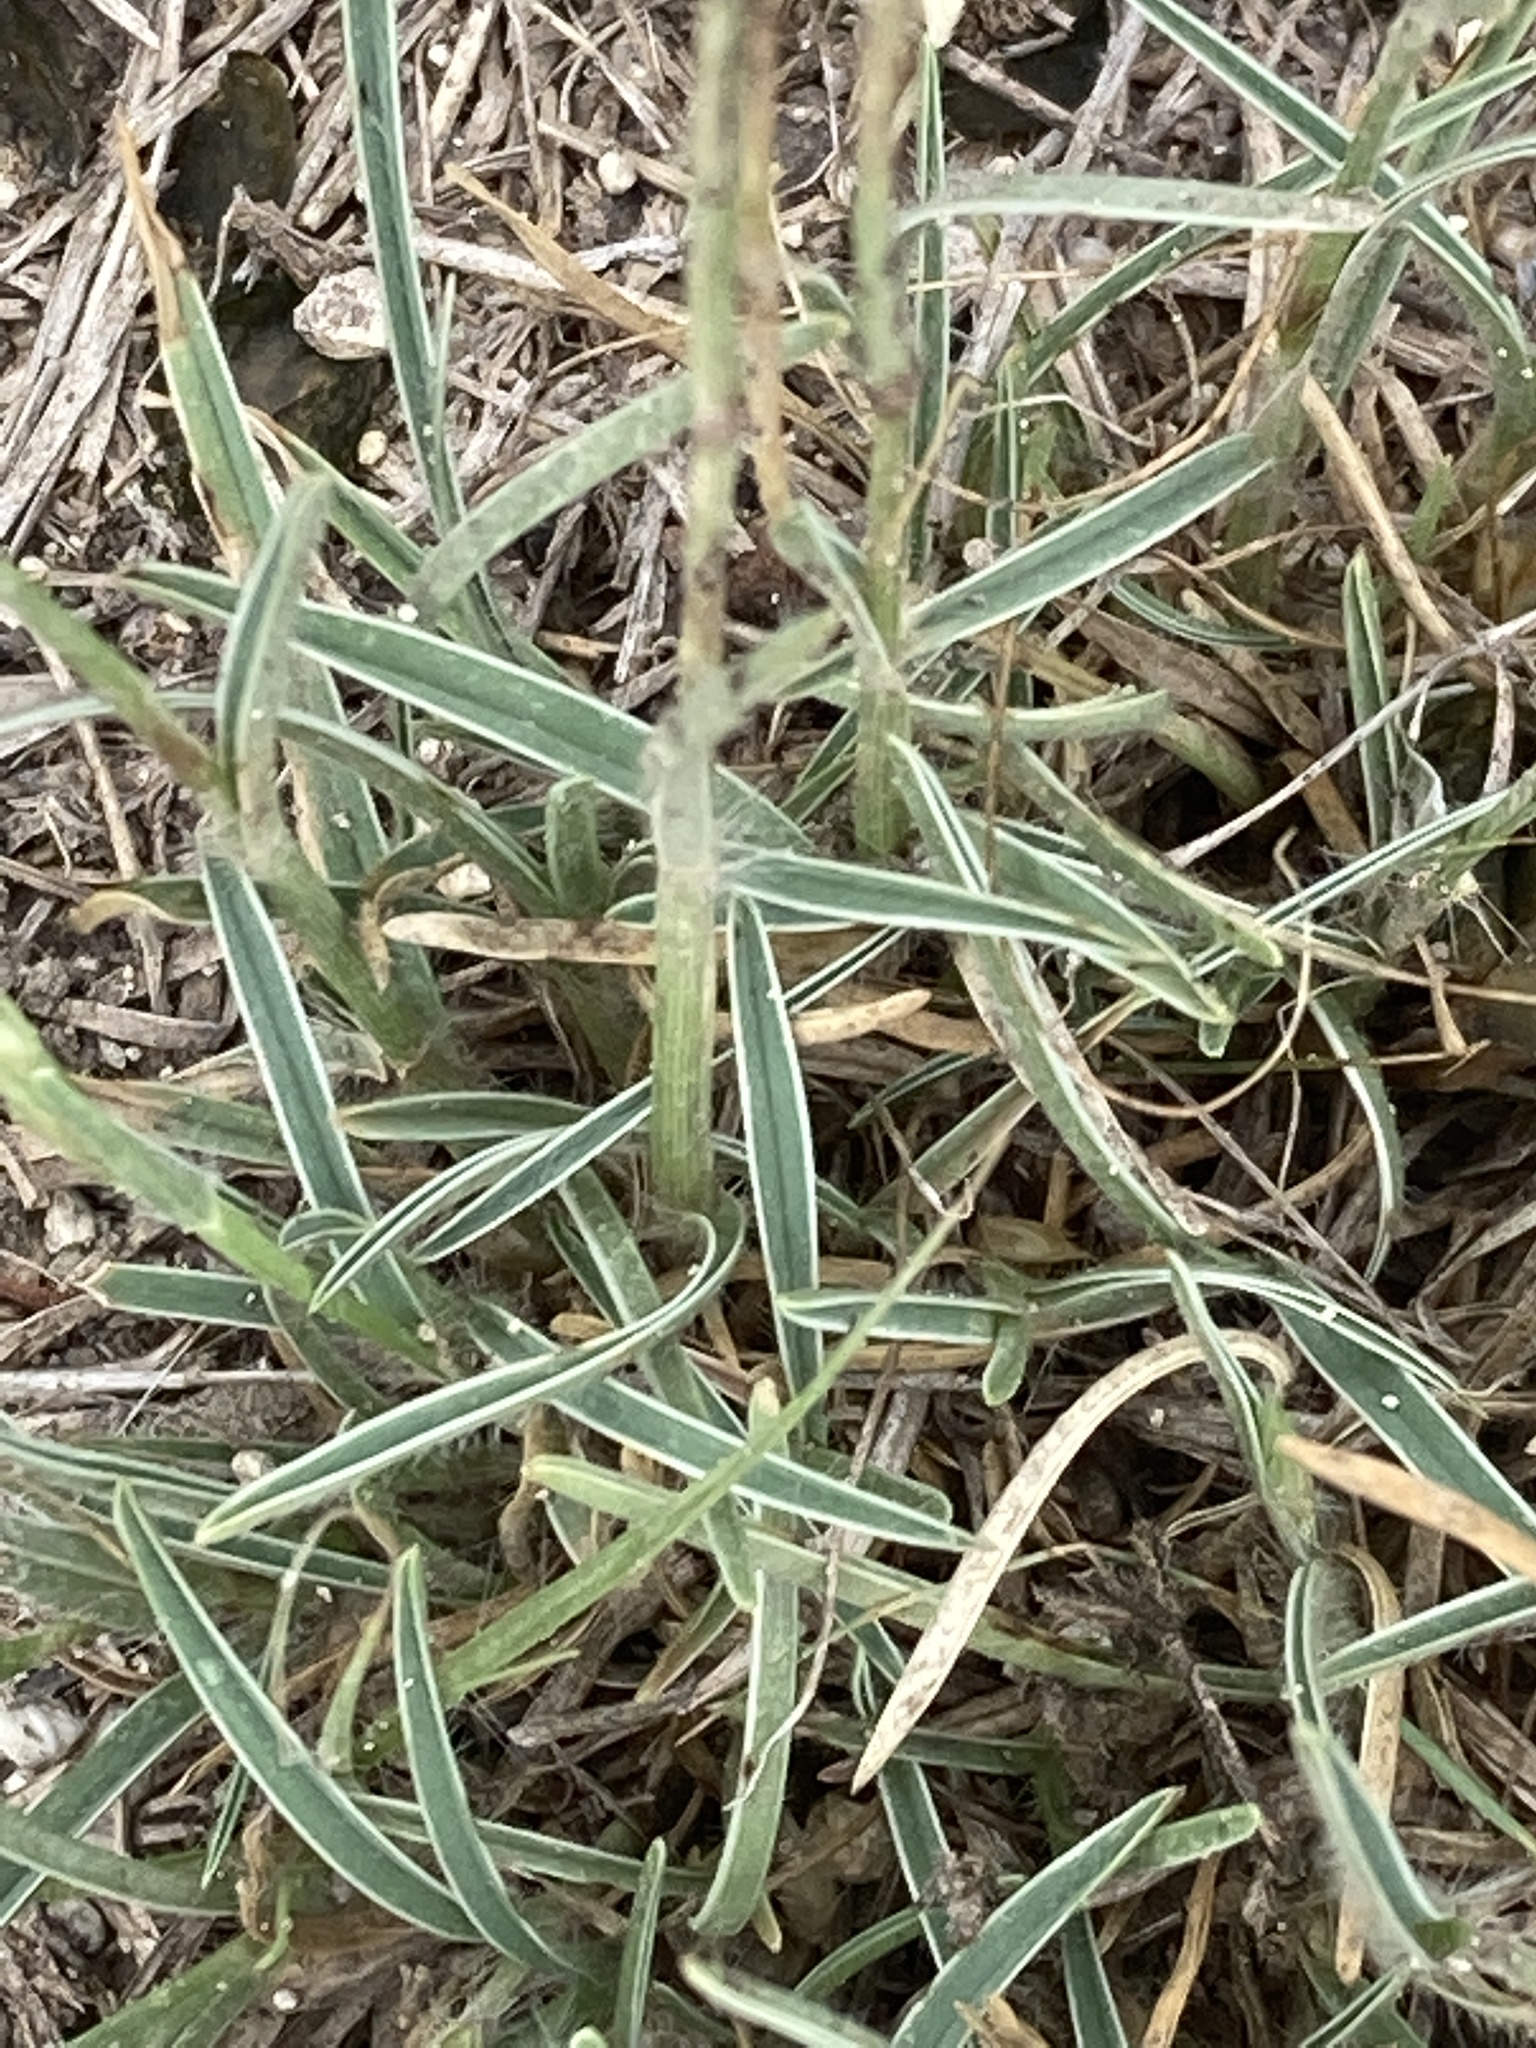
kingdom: Plantae
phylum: Tracheophyta
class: Liliopsida
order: Poales
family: Poaceae
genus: Erioneuron
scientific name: Erioneuron pilosum
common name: Hairy woolly grass
